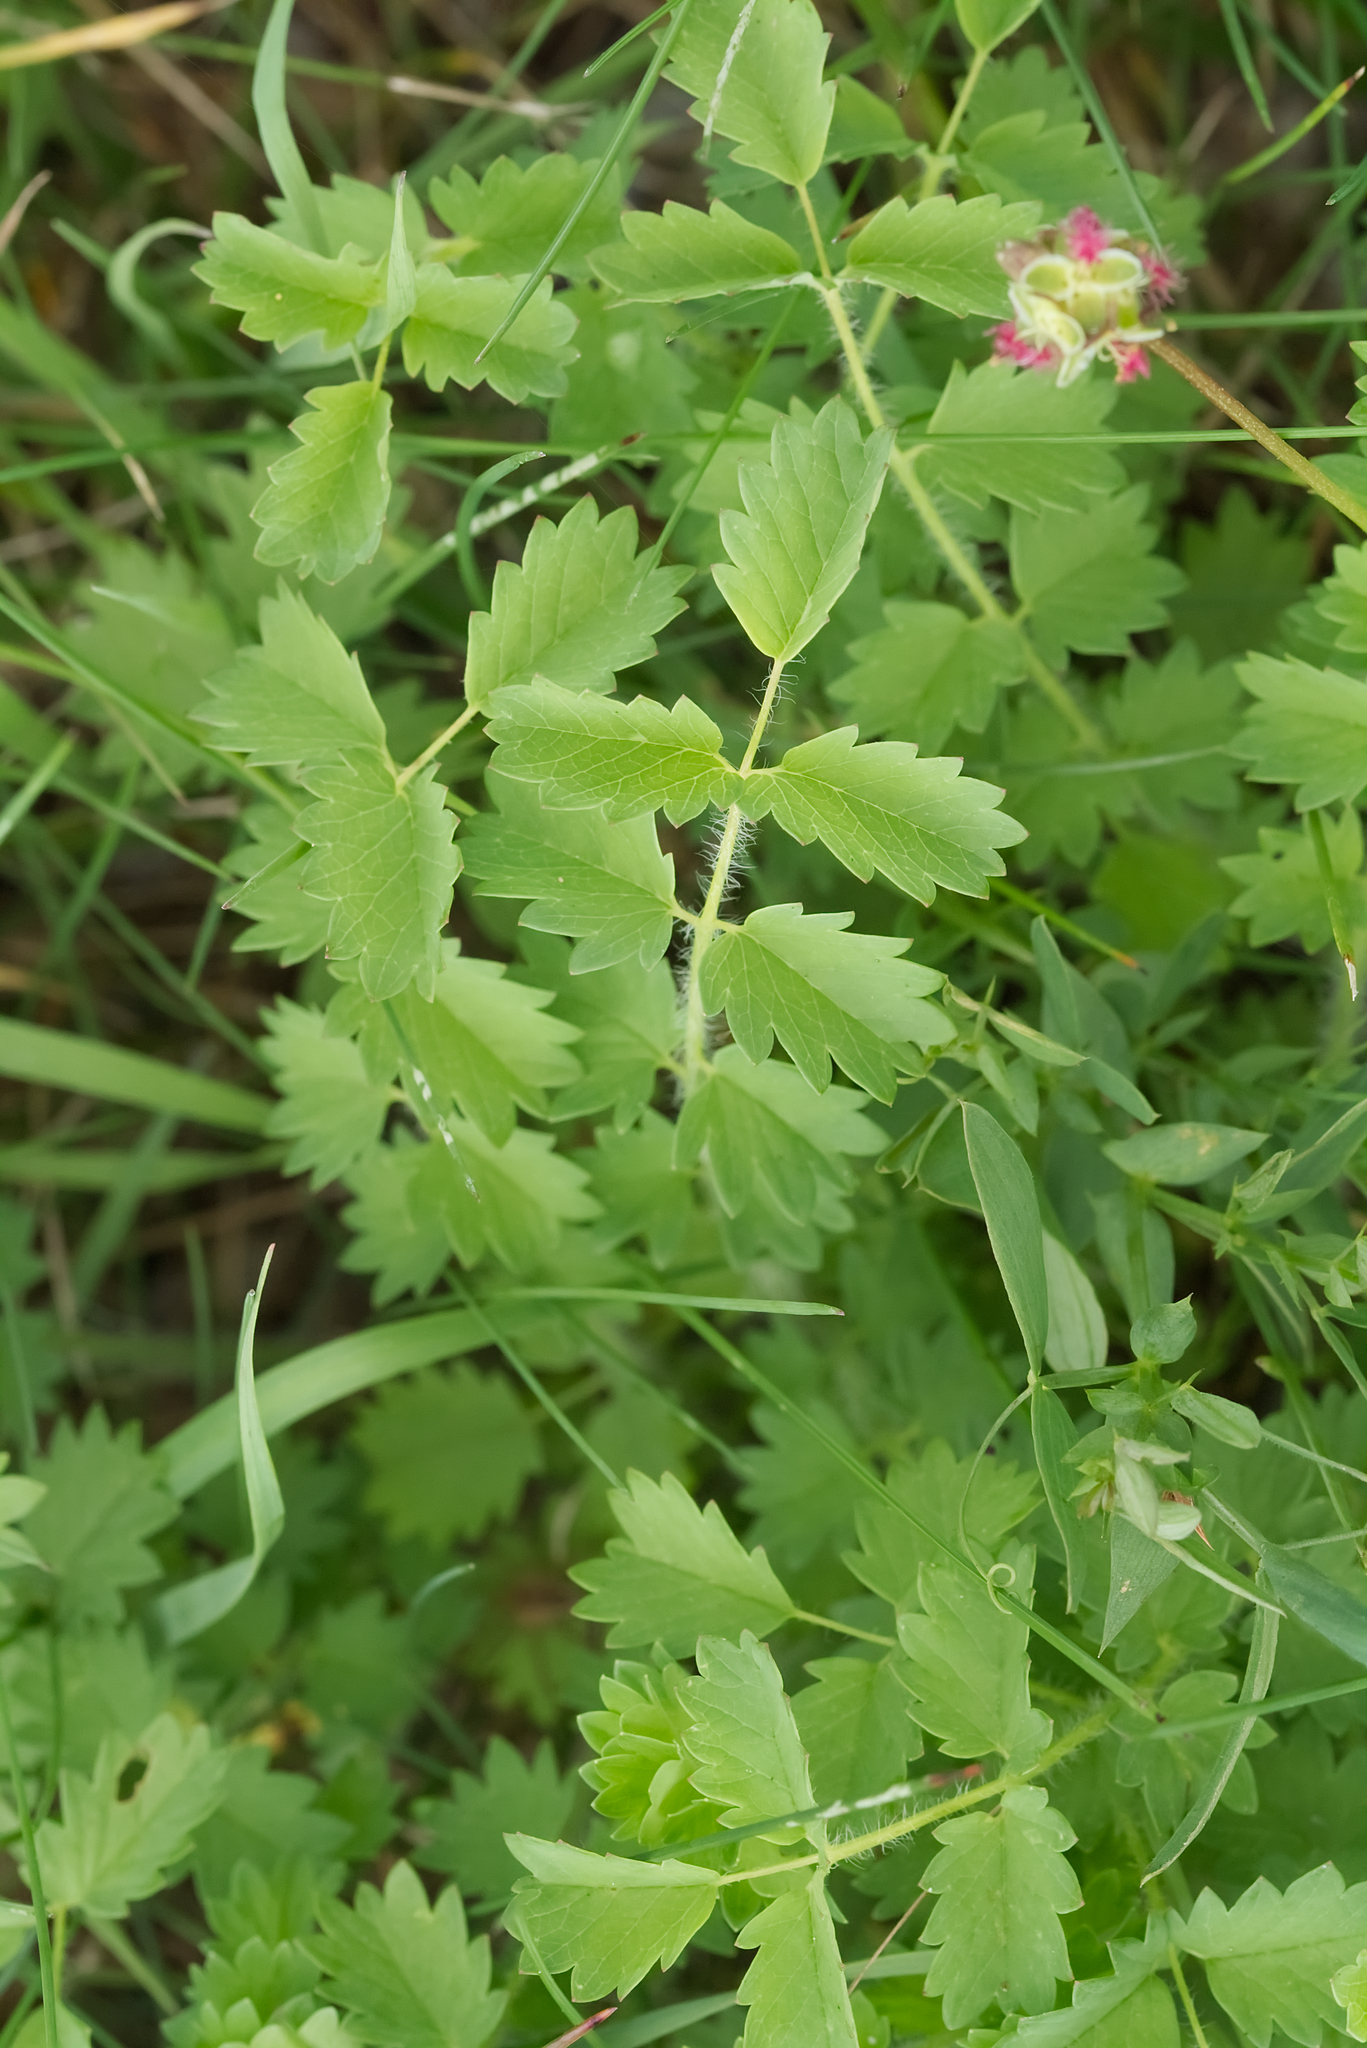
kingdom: Plantae
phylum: Tracheophyta
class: Magnoliopsida
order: Rosales
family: Rosaceae
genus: Poterium
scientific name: Poterium sanguisorba
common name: Salad burnet
